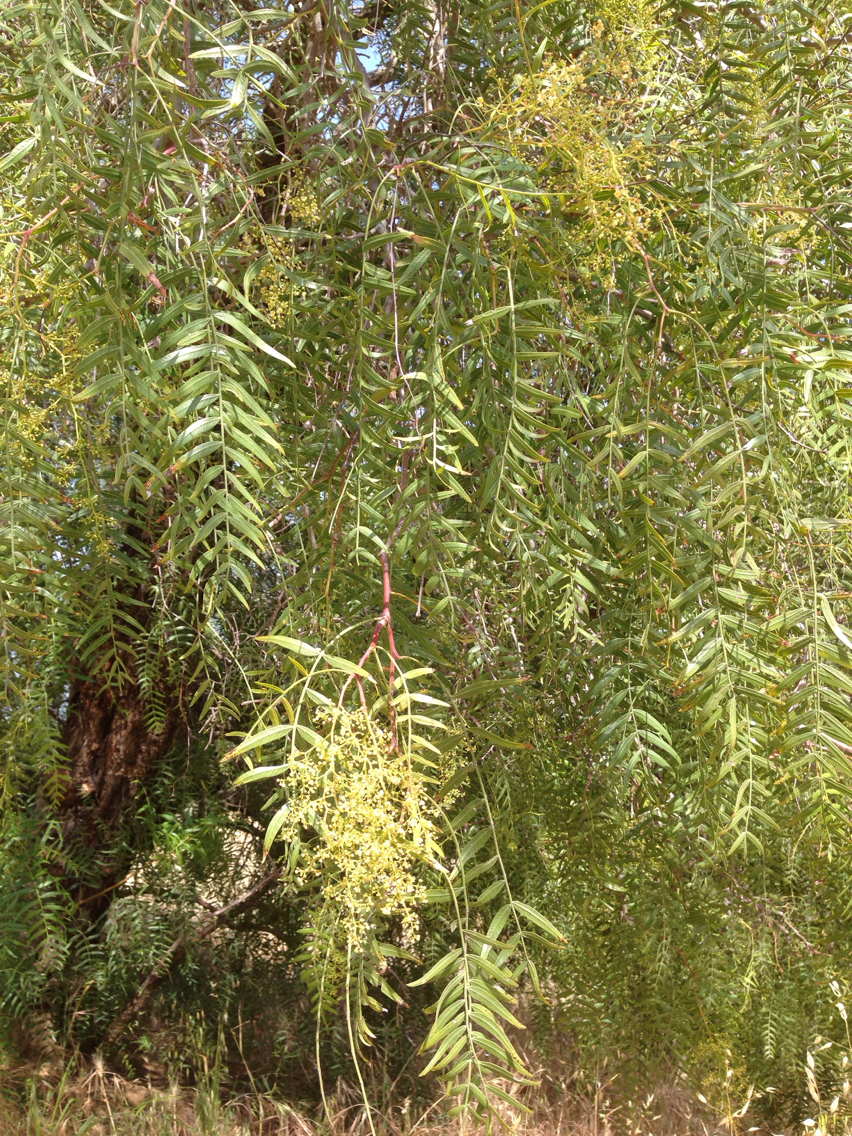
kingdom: Plantae
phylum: Tracheophyta
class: Magnoliopsida
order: Sapindales
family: Anacardiaceae
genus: Schinus
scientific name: Schinus molle
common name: Peruvian peppertree
